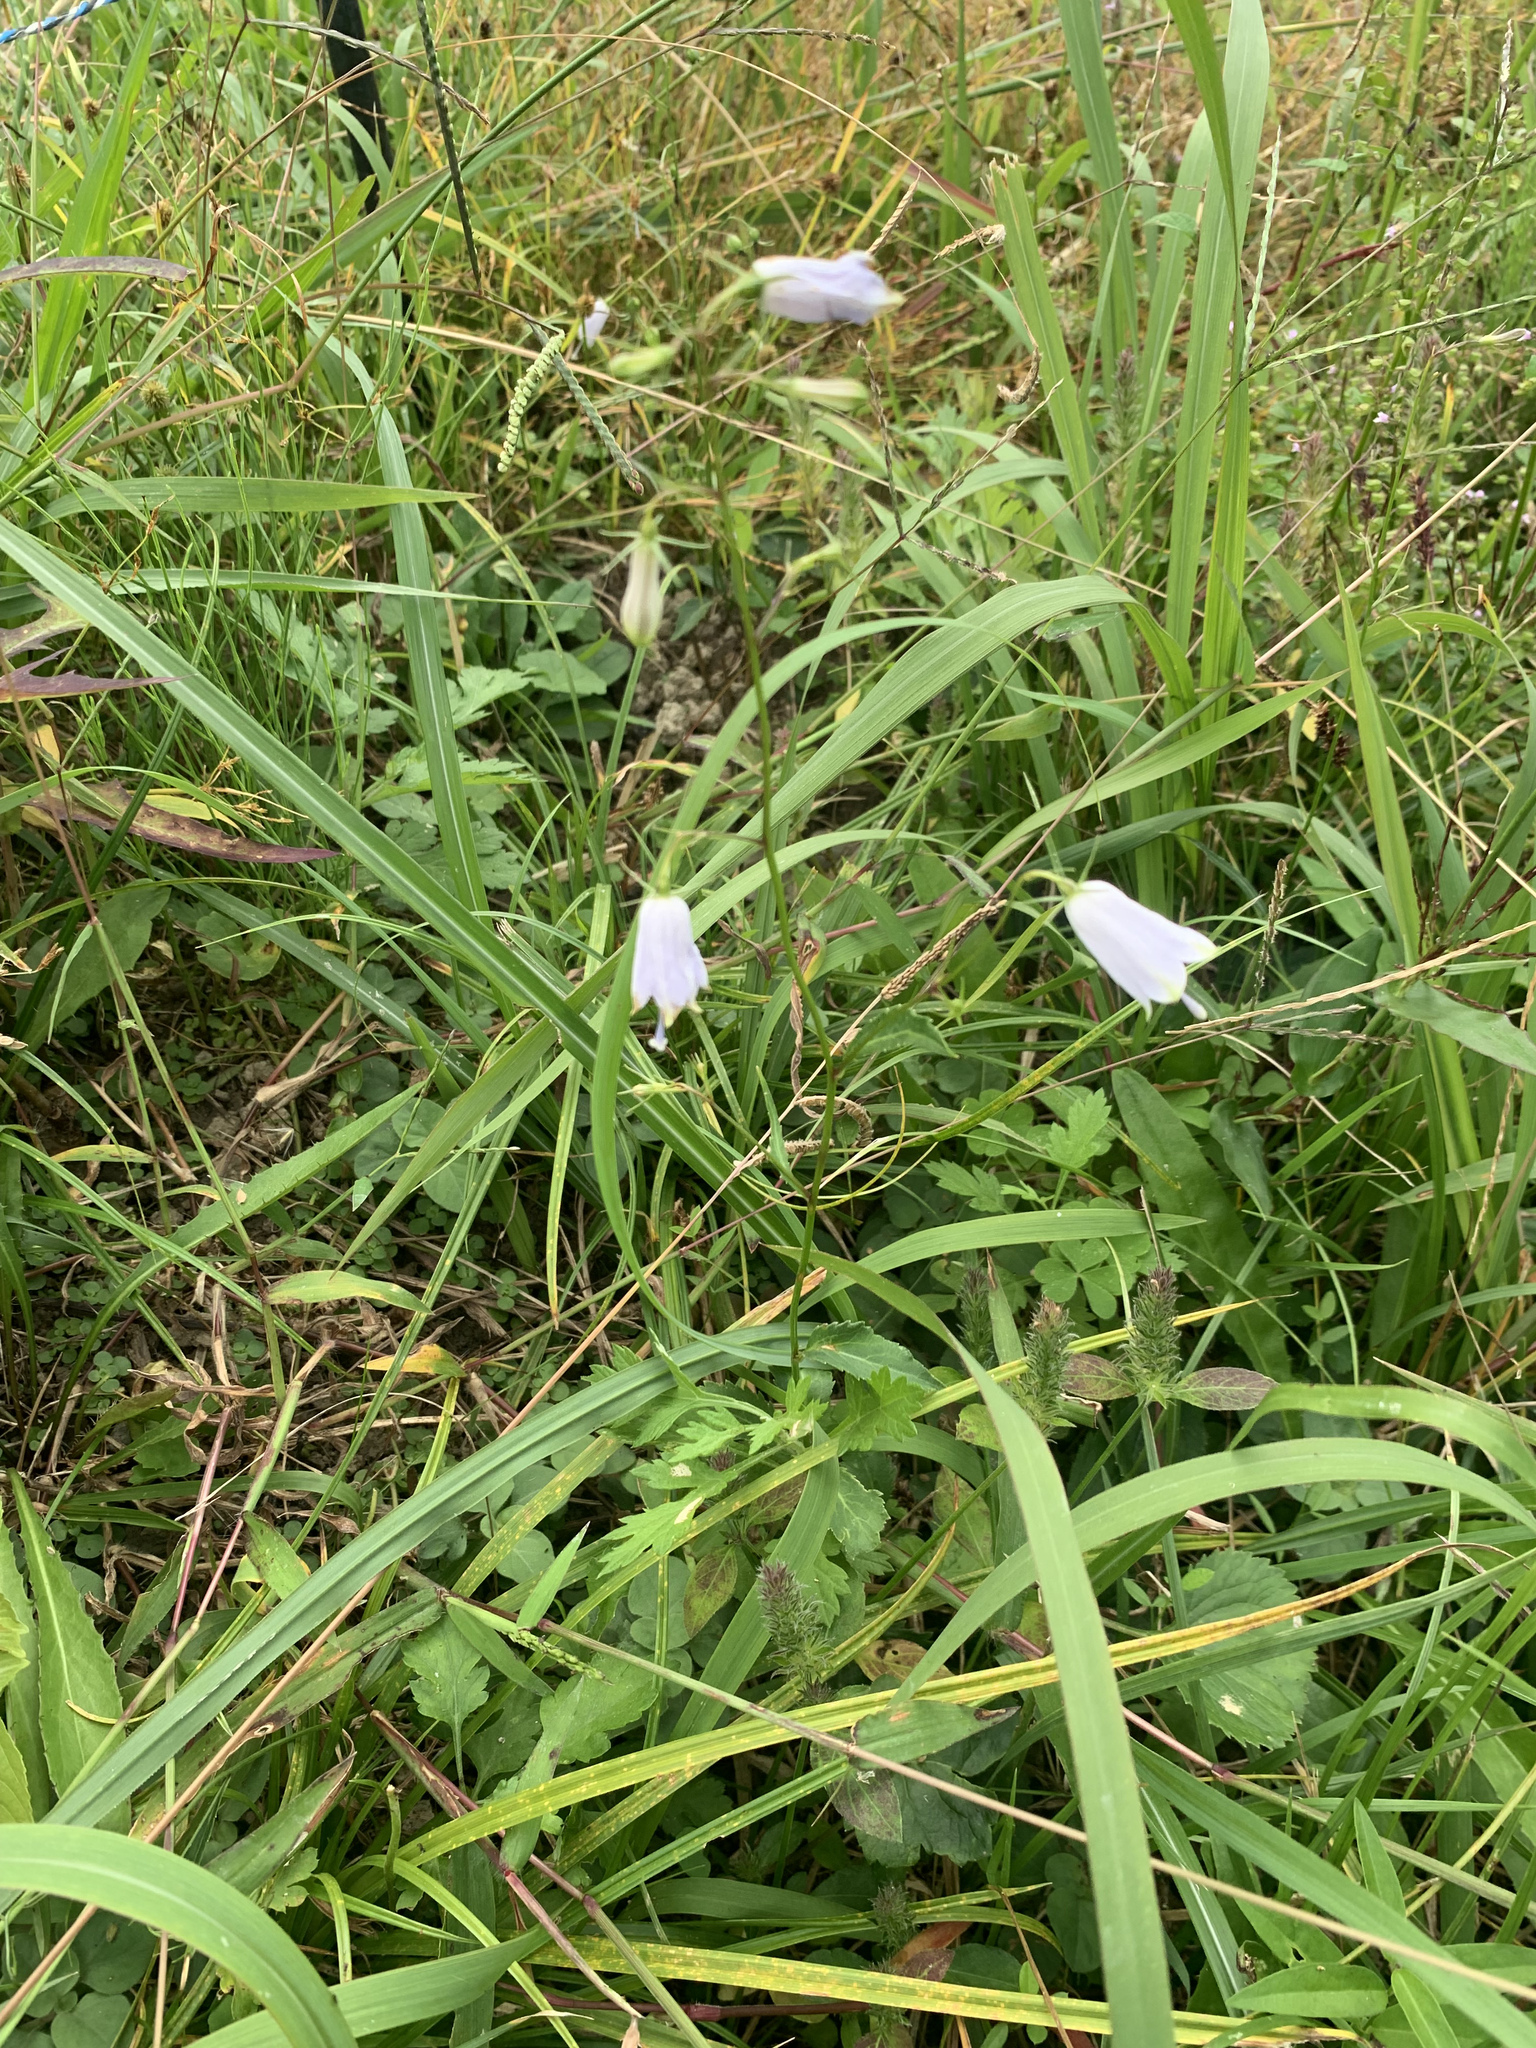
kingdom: Plantae
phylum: Tracheophyta
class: Magnoliopsida
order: Asterales
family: Campanulaceae
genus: Adenophora
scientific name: Adenophora triphylla
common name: Giant-bellflower
